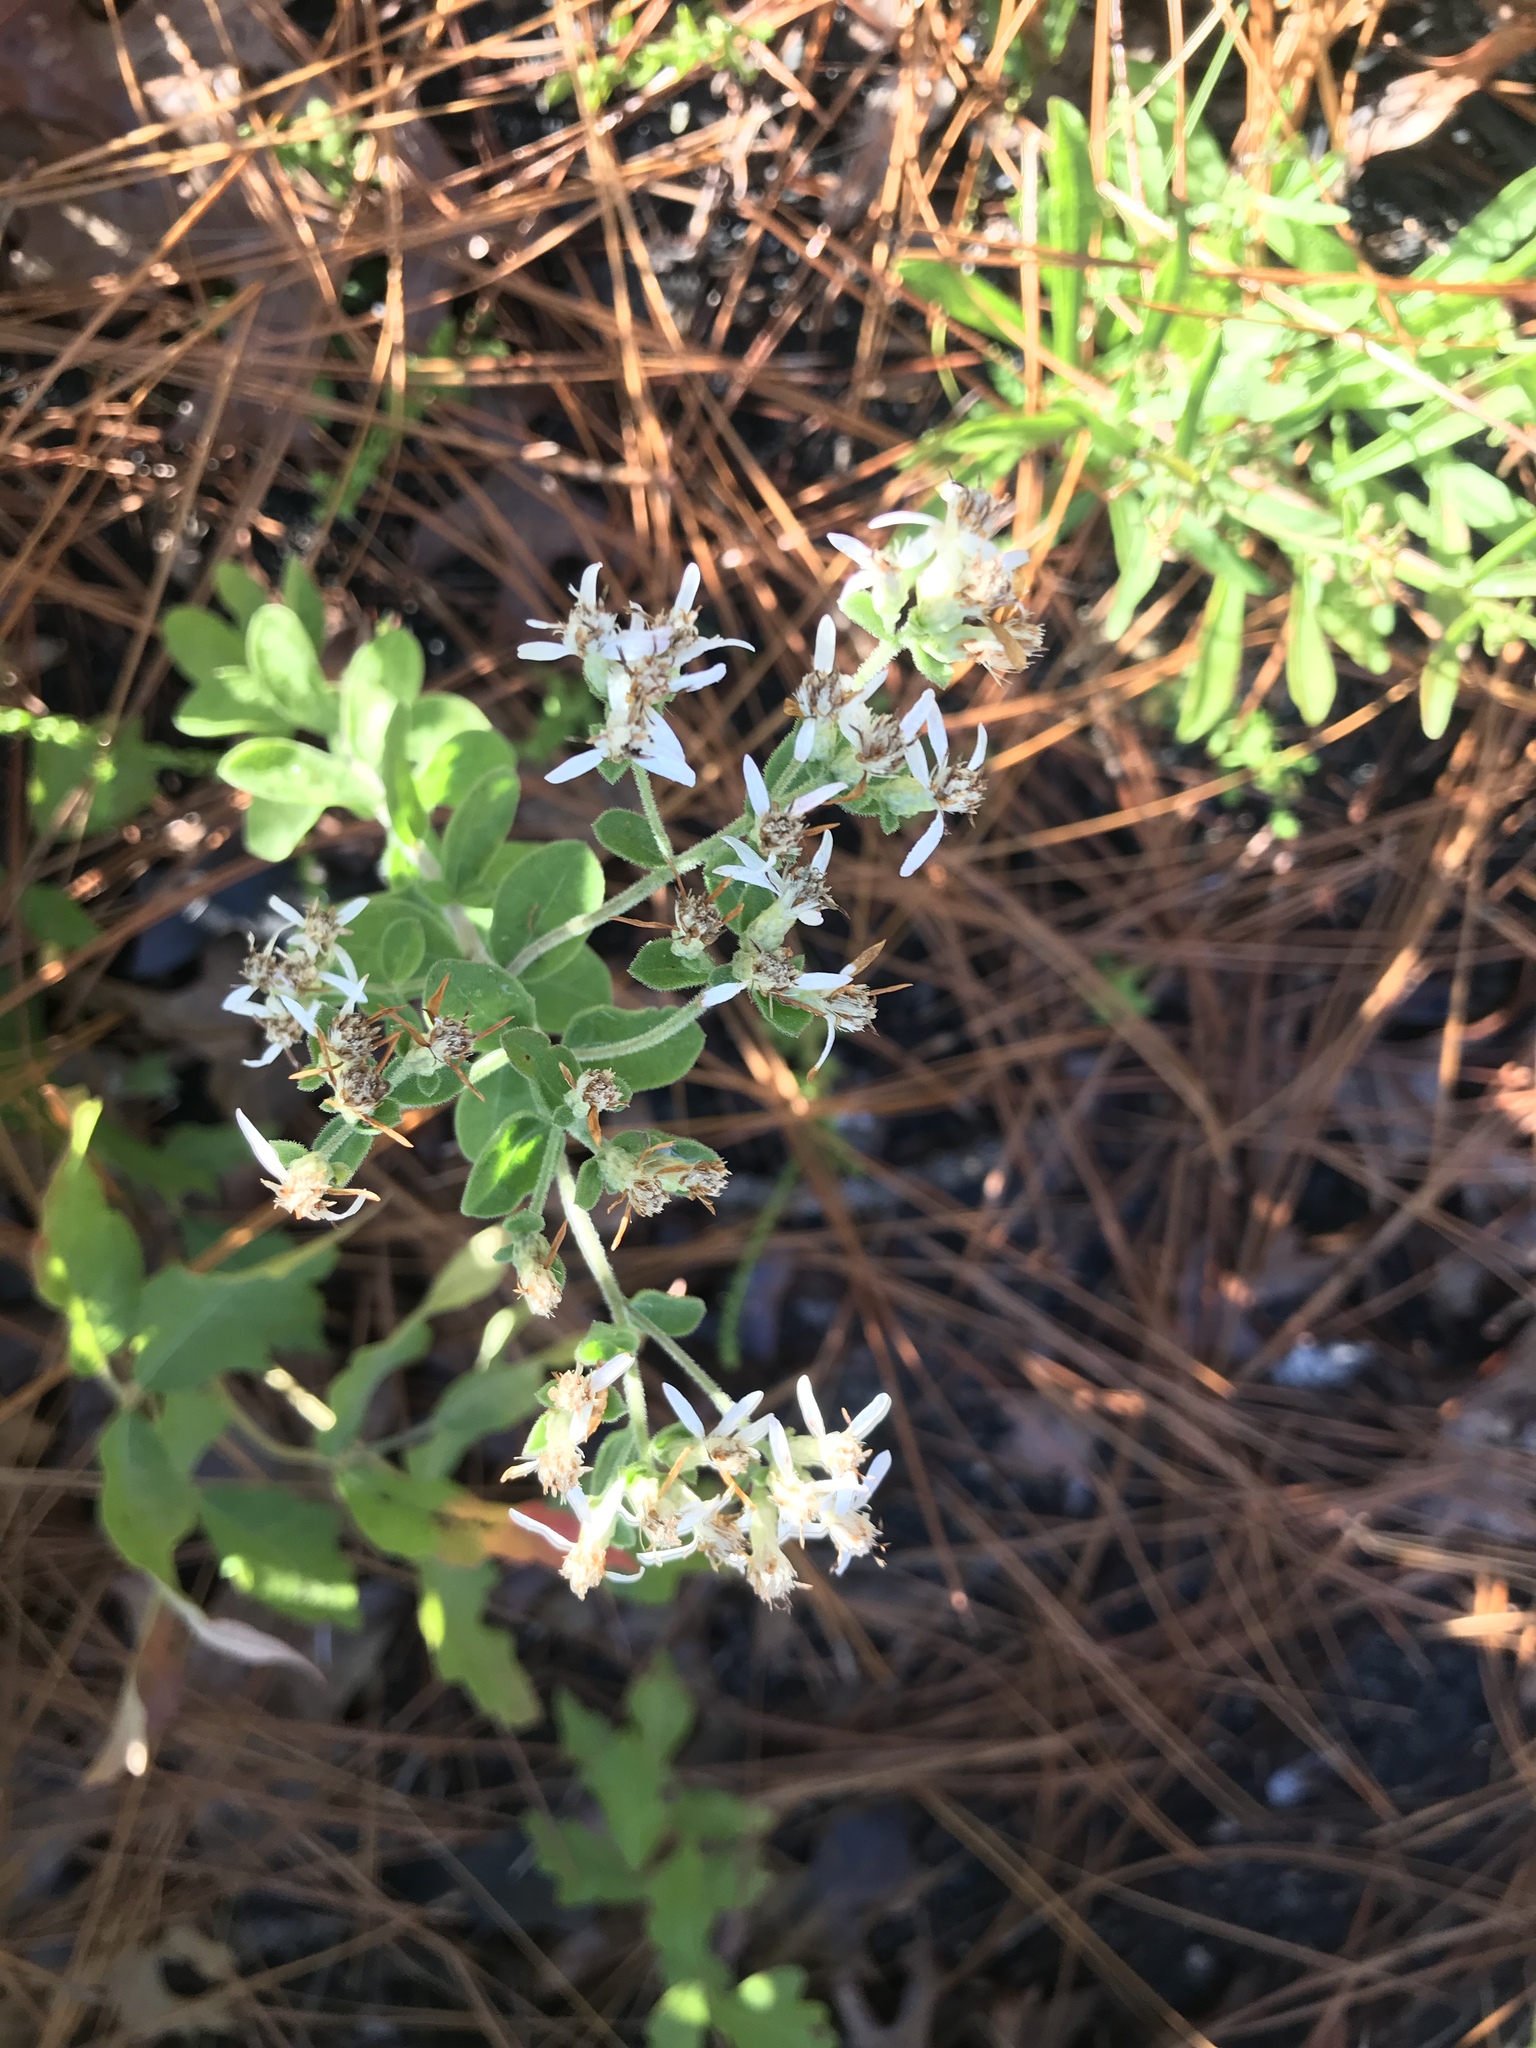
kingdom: Plantae
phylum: Tracheophyta
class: Magnoliopsida
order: Asterales
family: Asteraceae
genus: Sericocarpus
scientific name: Sericocarpus tortifolius
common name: Dixie aster
